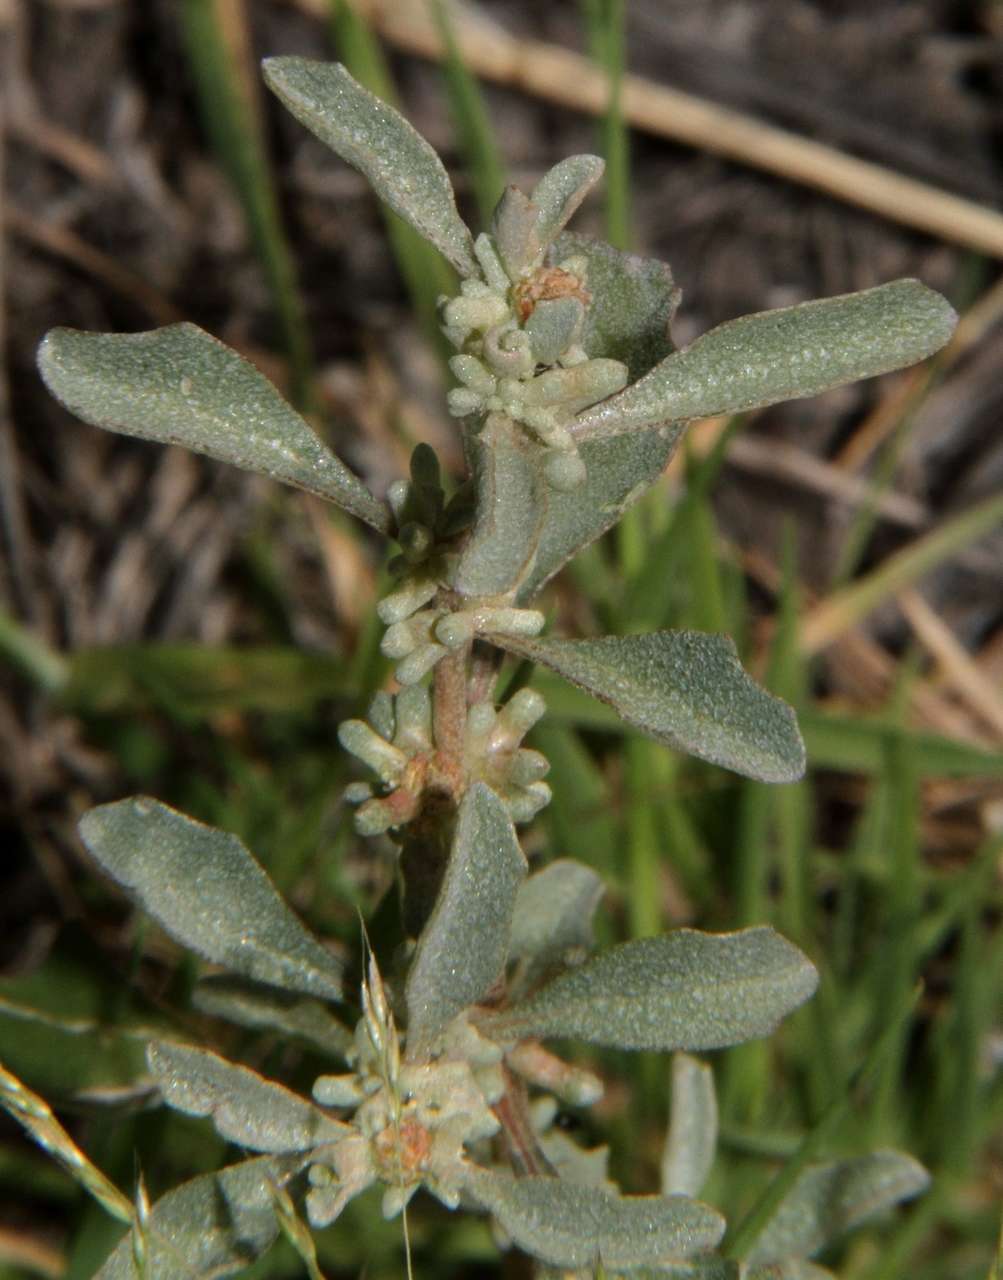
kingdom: Plantae
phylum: Tracheophyta
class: Magnoliopsida
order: Caryophyllales
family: Amaranthaceae
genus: Atriplex
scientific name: Atriplex leptocarpa
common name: Slender-fruit saltbush
